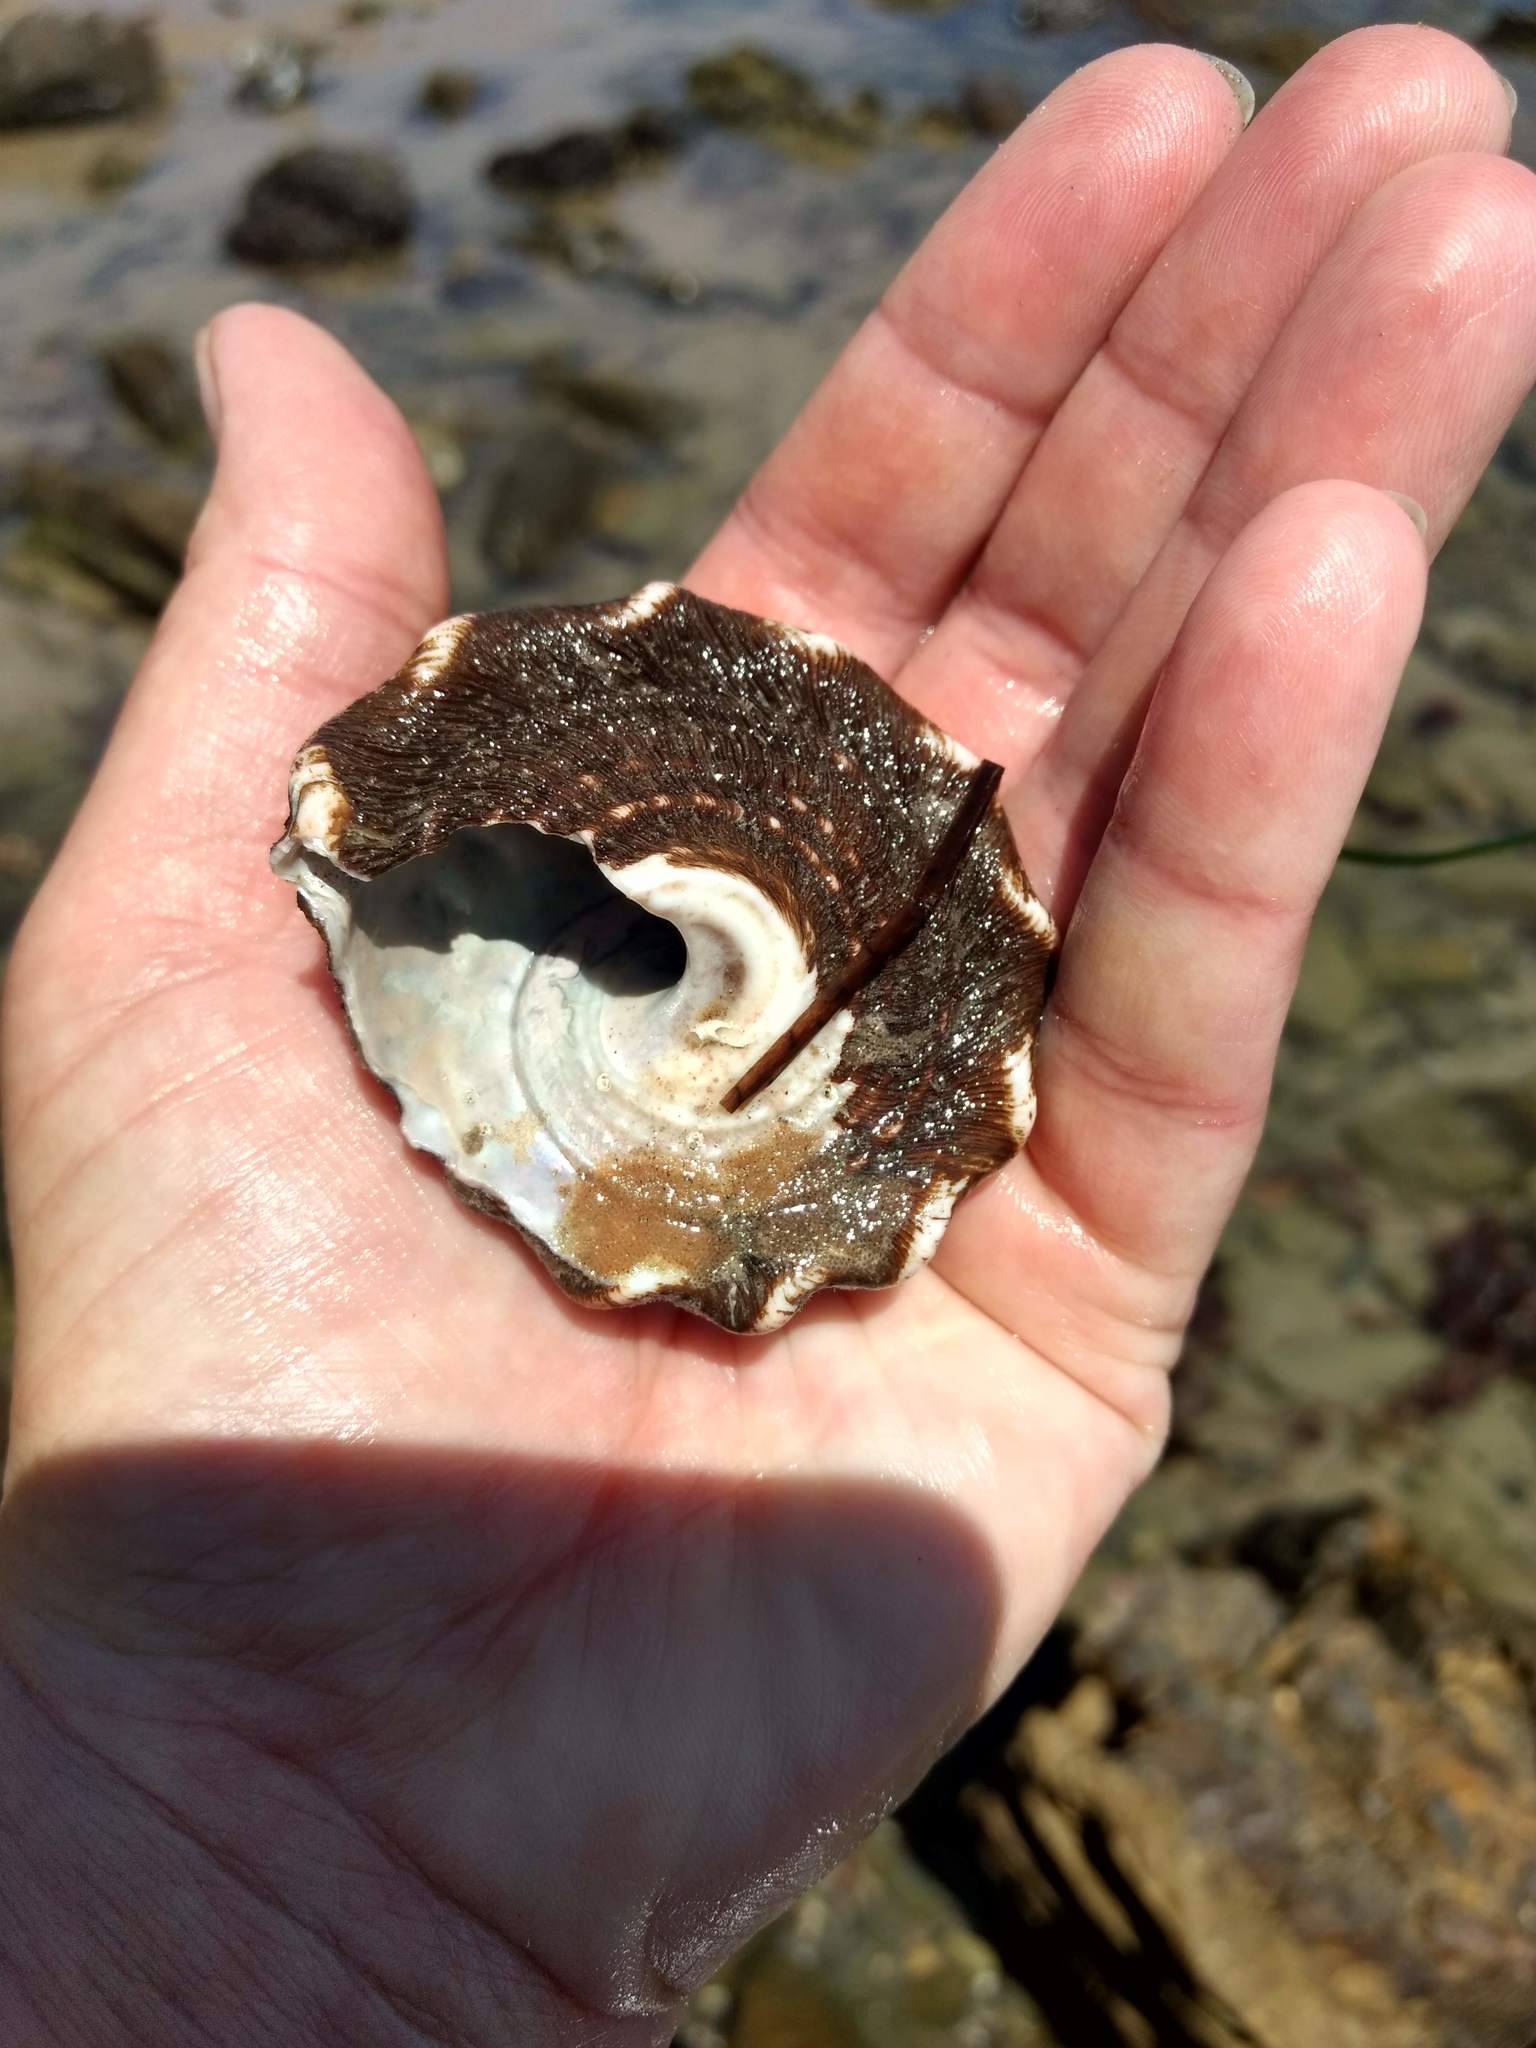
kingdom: Animalia
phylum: Mollusca
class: Gastropoda
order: Trochida
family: Turbinidae
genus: Megastraea
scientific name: Megastraea undosa
